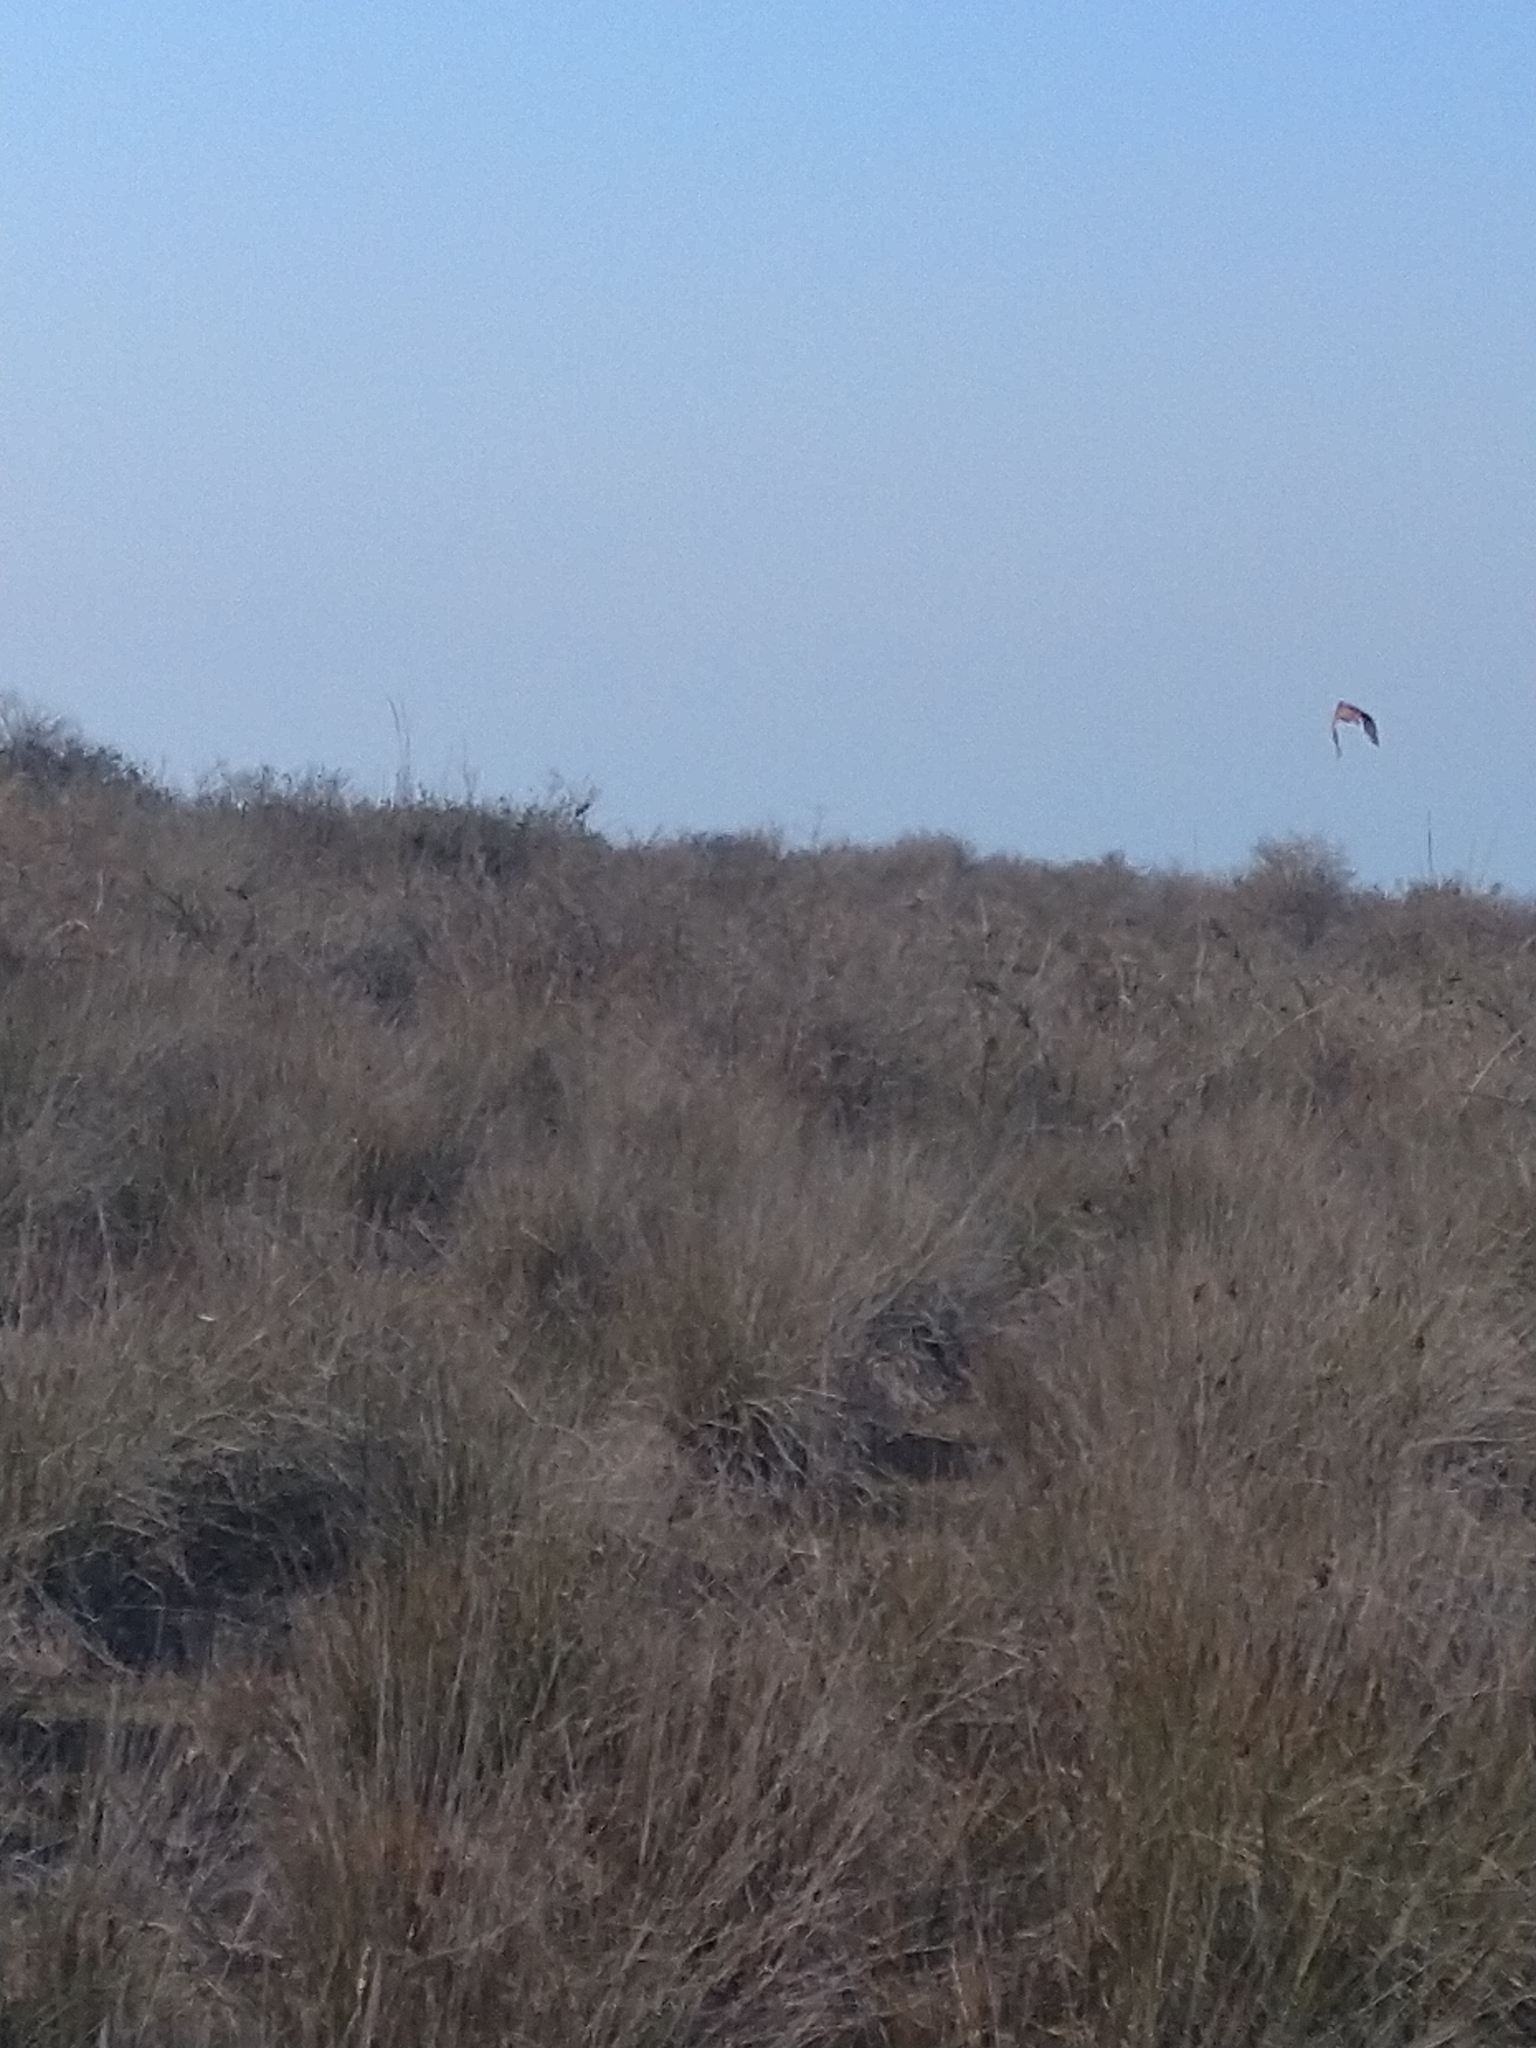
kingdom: Animalia
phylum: Chordata
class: Aves
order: Galliformes
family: Phasianidae
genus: Phasianus
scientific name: Phasianus colchicus
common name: Common pheasant
